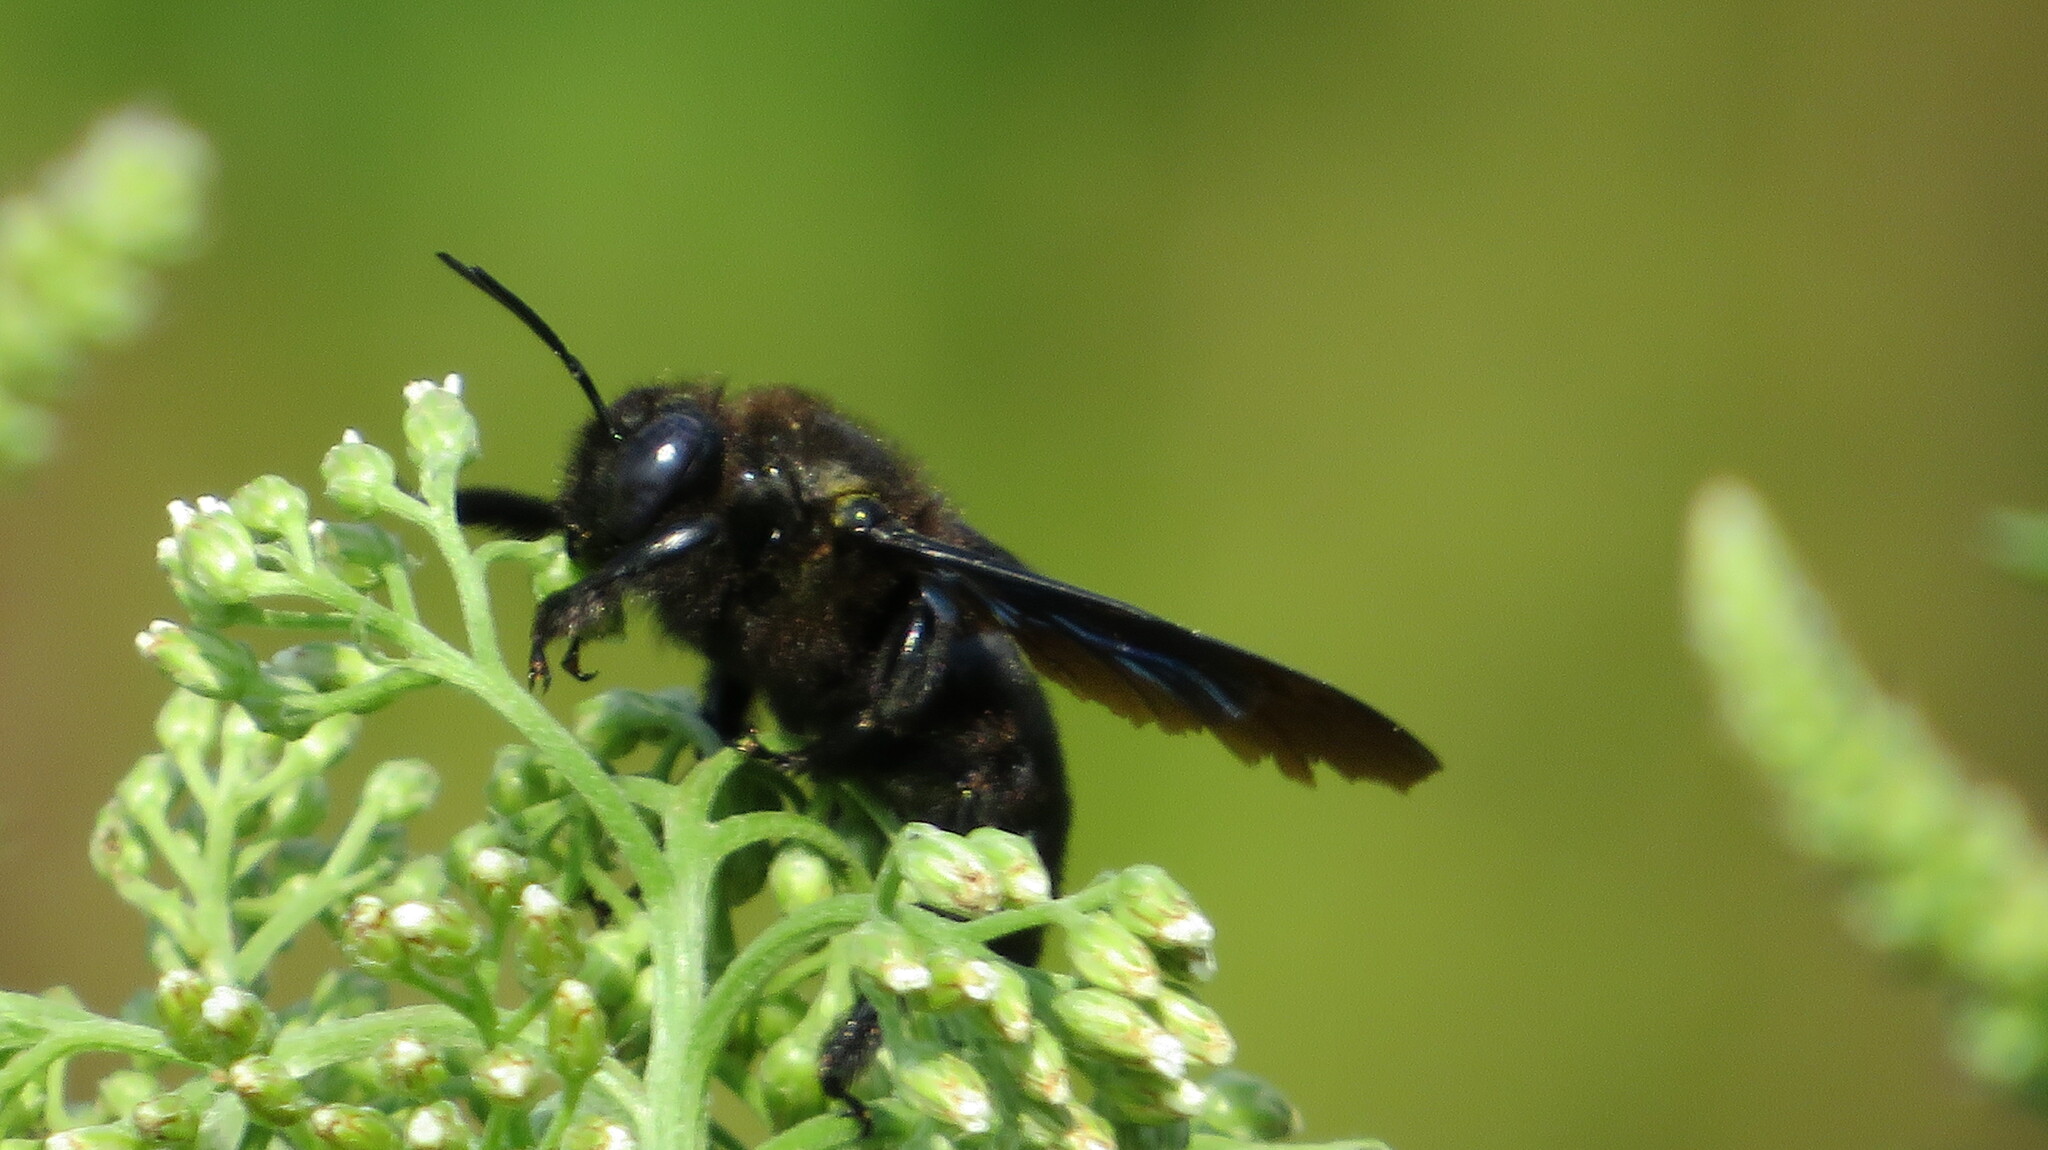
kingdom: Animalia
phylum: Arthropoda
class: Insecta
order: Hymenoptera
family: Apidae
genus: Xylocopa
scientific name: Xylocopa valga
